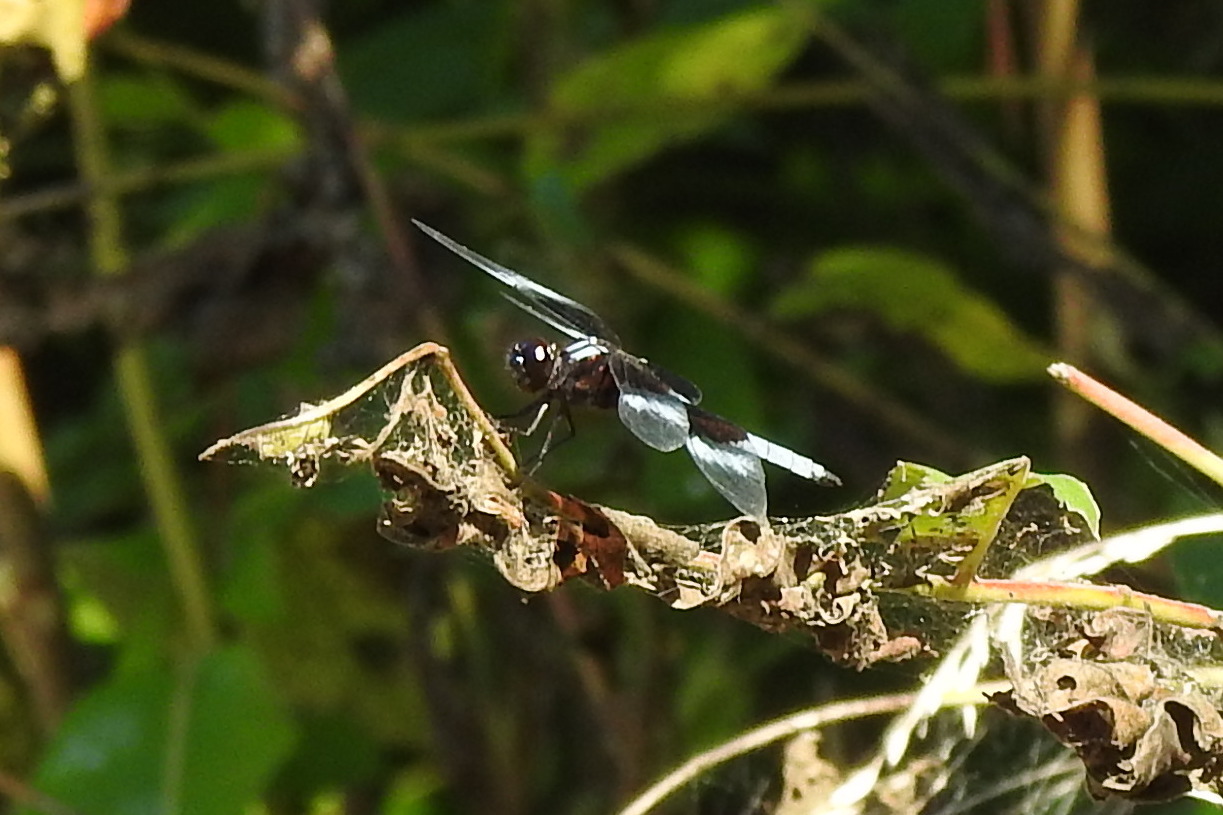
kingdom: Animalia
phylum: Arthropoda
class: Insecta
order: Odonata
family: Libellulidae
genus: Libellula
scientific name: Libellula luctuosa
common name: Widow skimmer
